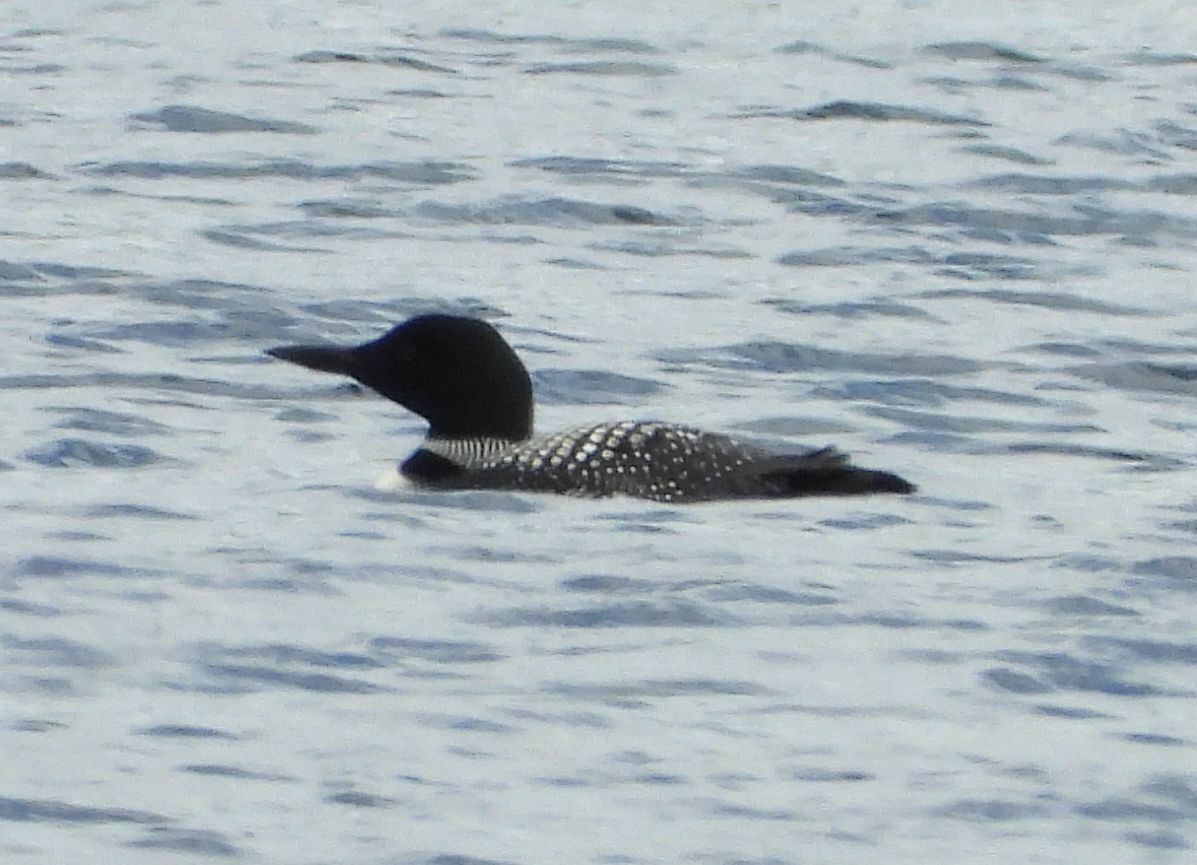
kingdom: Animalia
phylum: Chordata
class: Aves
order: Gaviiformes
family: Gaviidae
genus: Gavia
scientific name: Gavia immer
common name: Common loon
